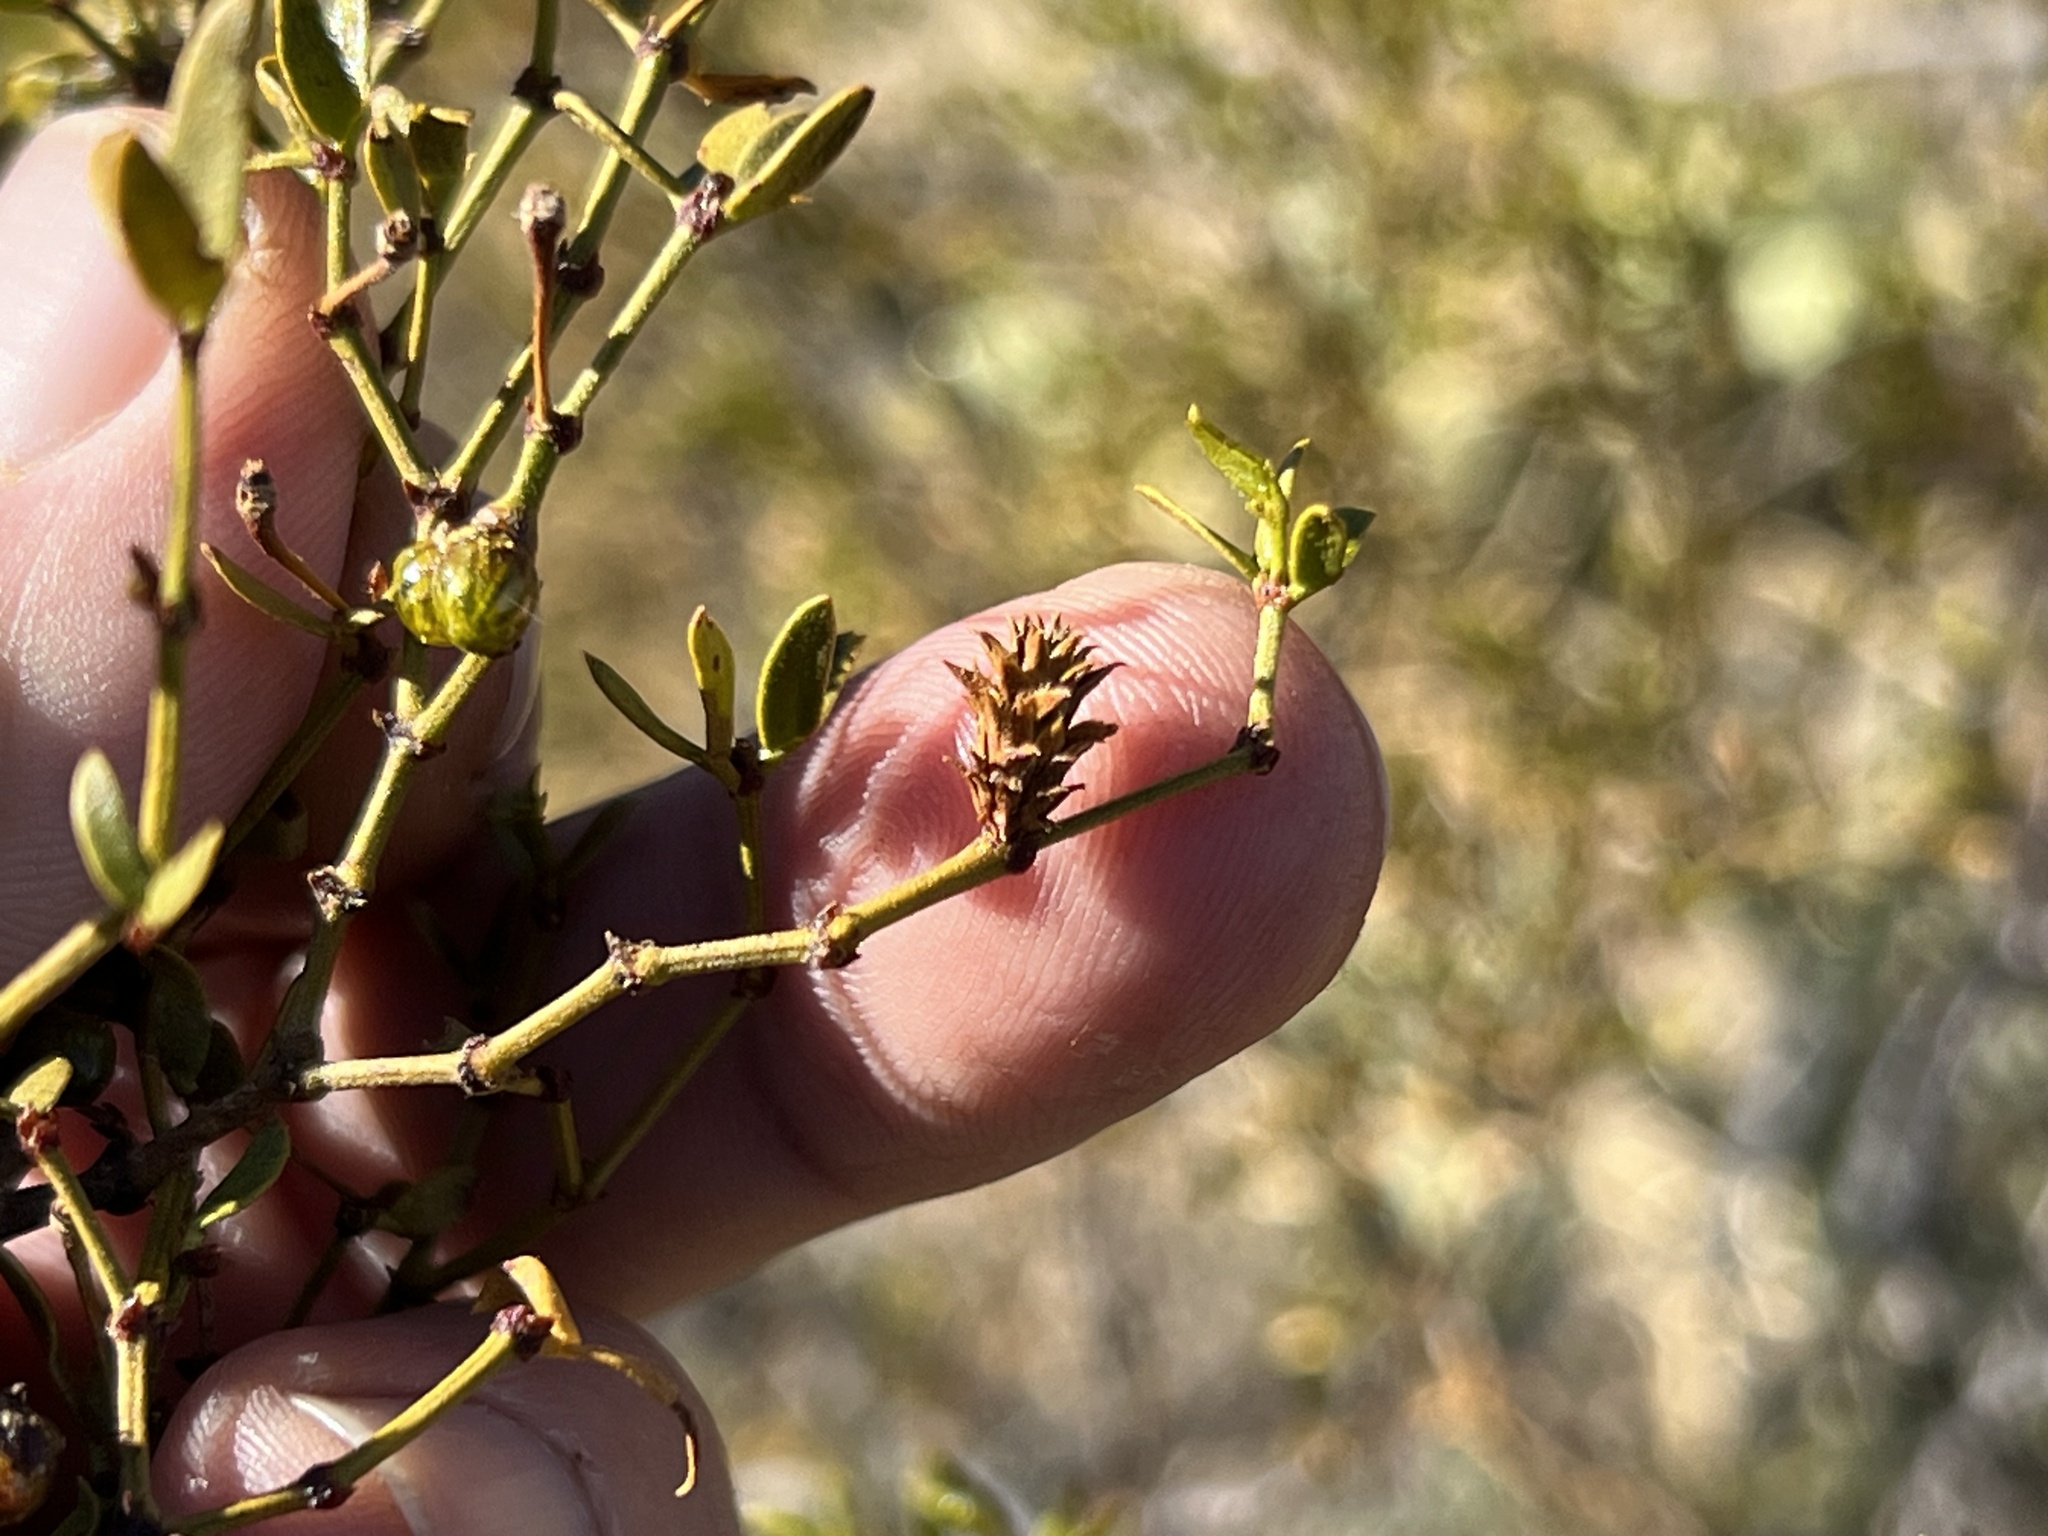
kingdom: Animalia
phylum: Arthropoda
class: Insecta
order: Diptera
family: Cecidomyiidae
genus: Asphondylia
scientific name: Asphondylia rosetta
